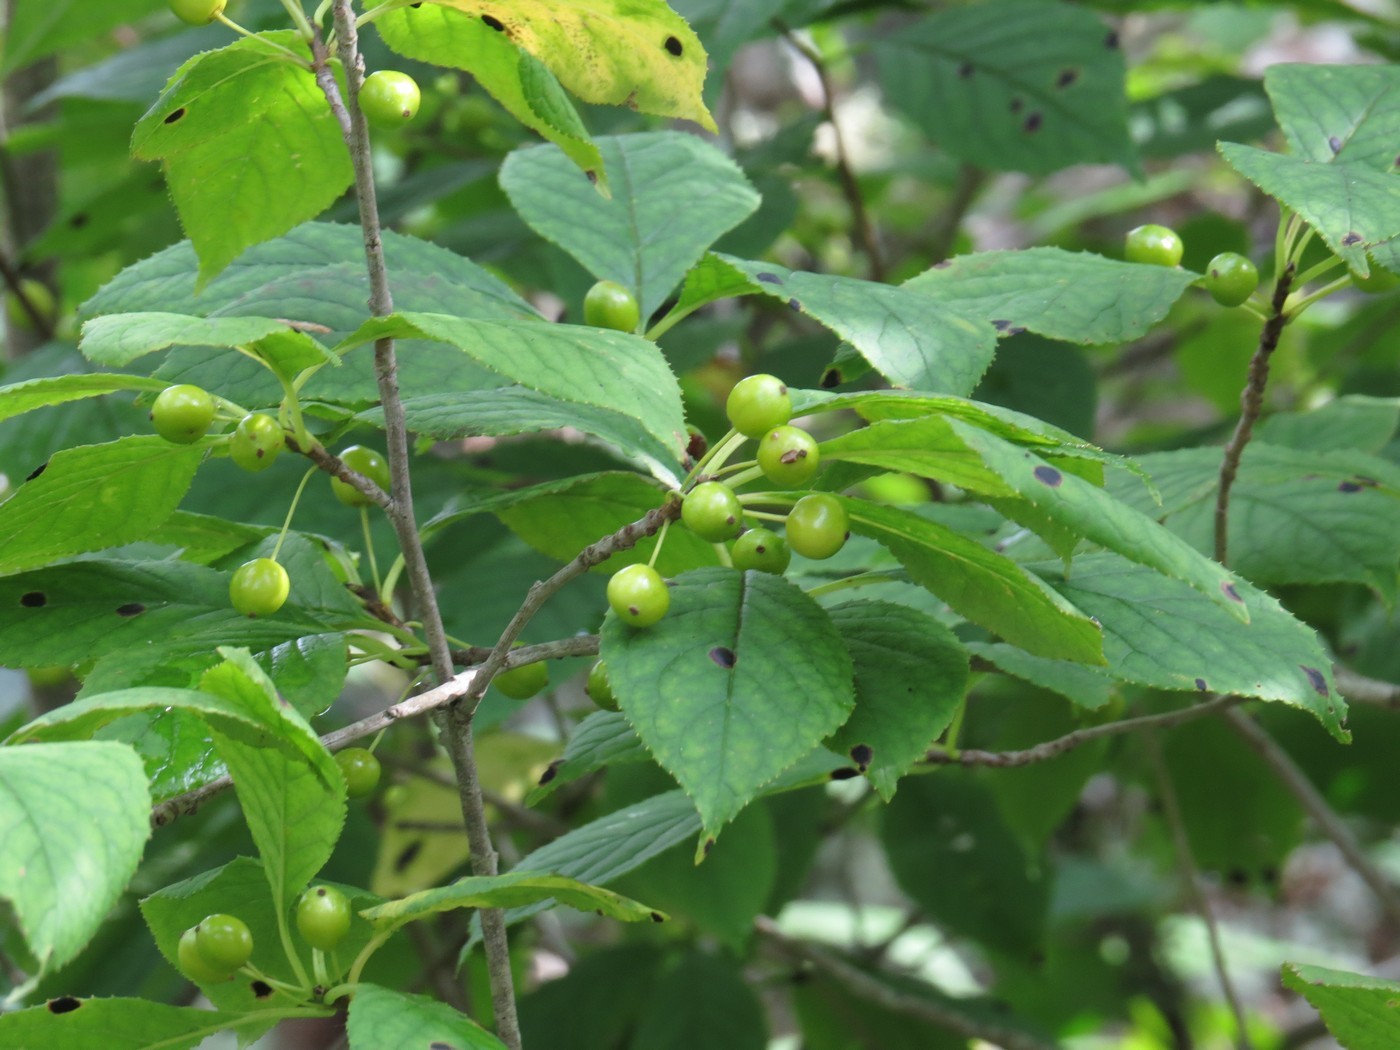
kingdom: Plantae
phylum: Tracheophyta
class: Magnoliopsida
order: Aquifoliales
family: Aquifoliaceae
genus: Ilex
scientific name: Ilex collina
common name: Long stalk holly
